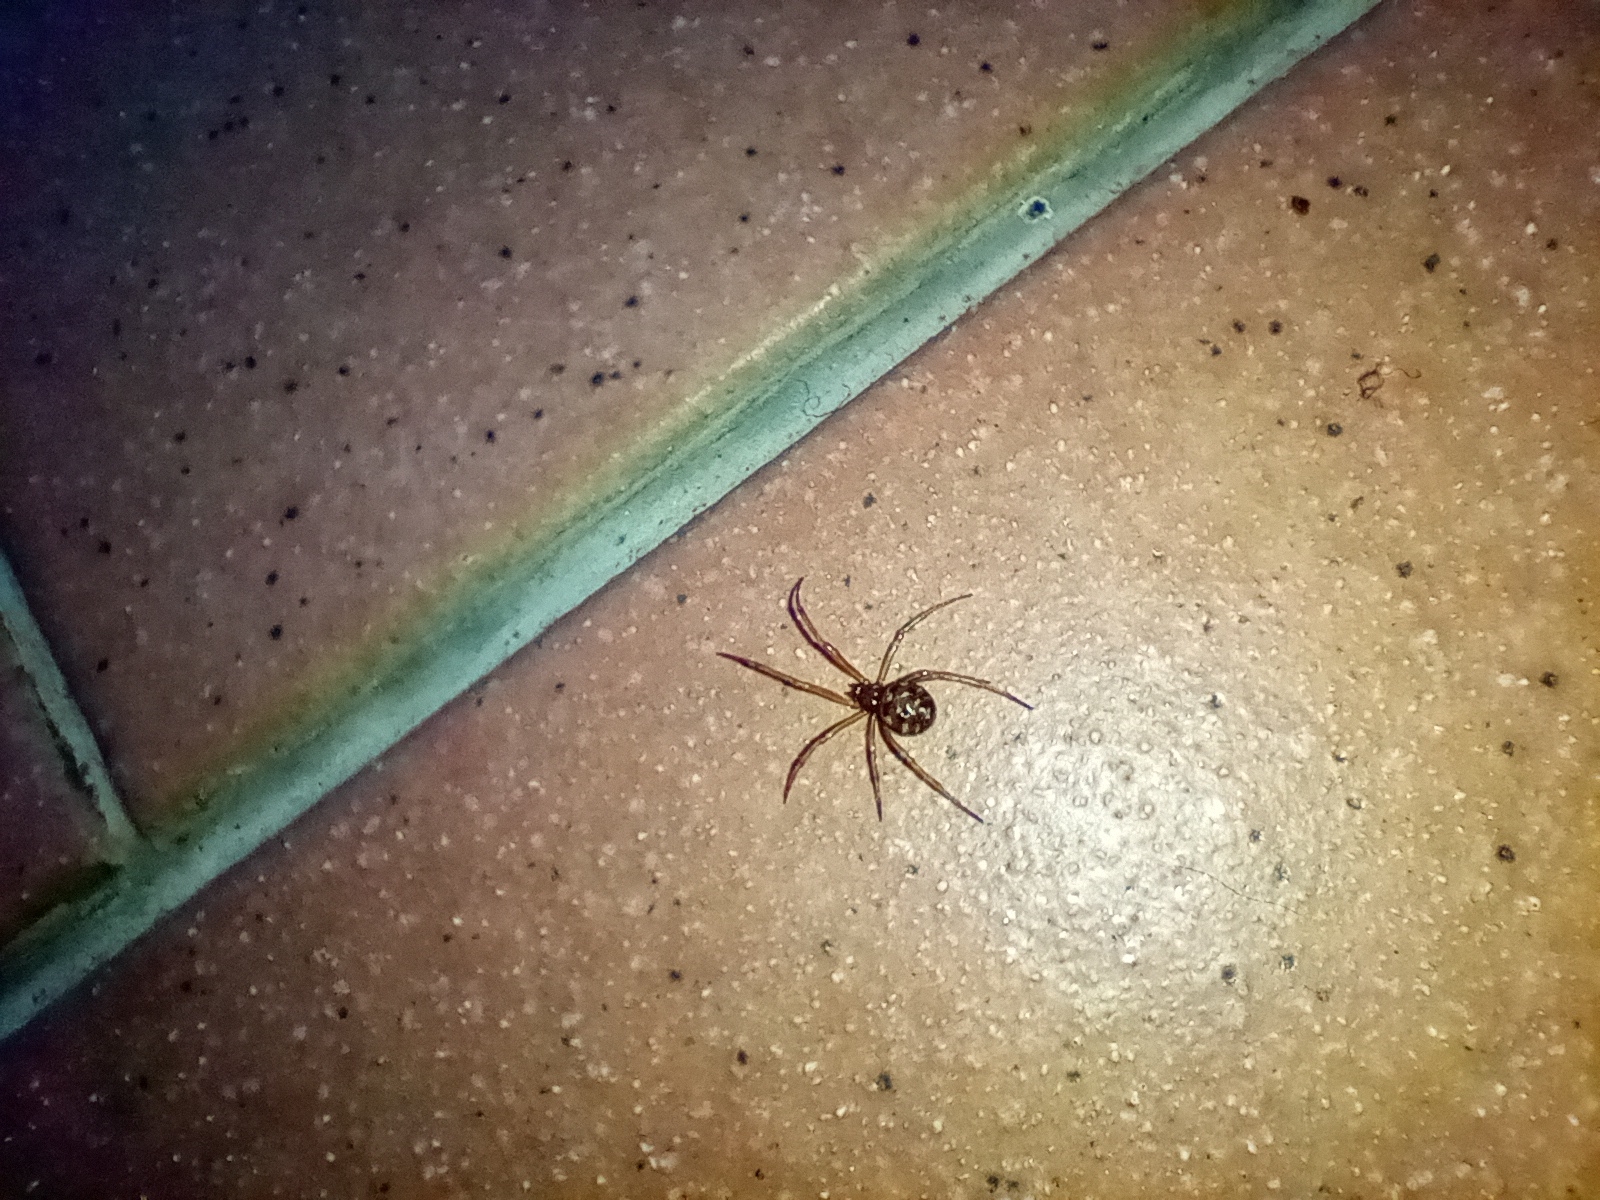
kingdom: Animalia
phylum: Arthropoda
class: Arachnida
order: Araneae
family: Theridiidae
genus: Steatoda
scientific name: Steatoda triangulosa
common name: Triangulate bud spider
